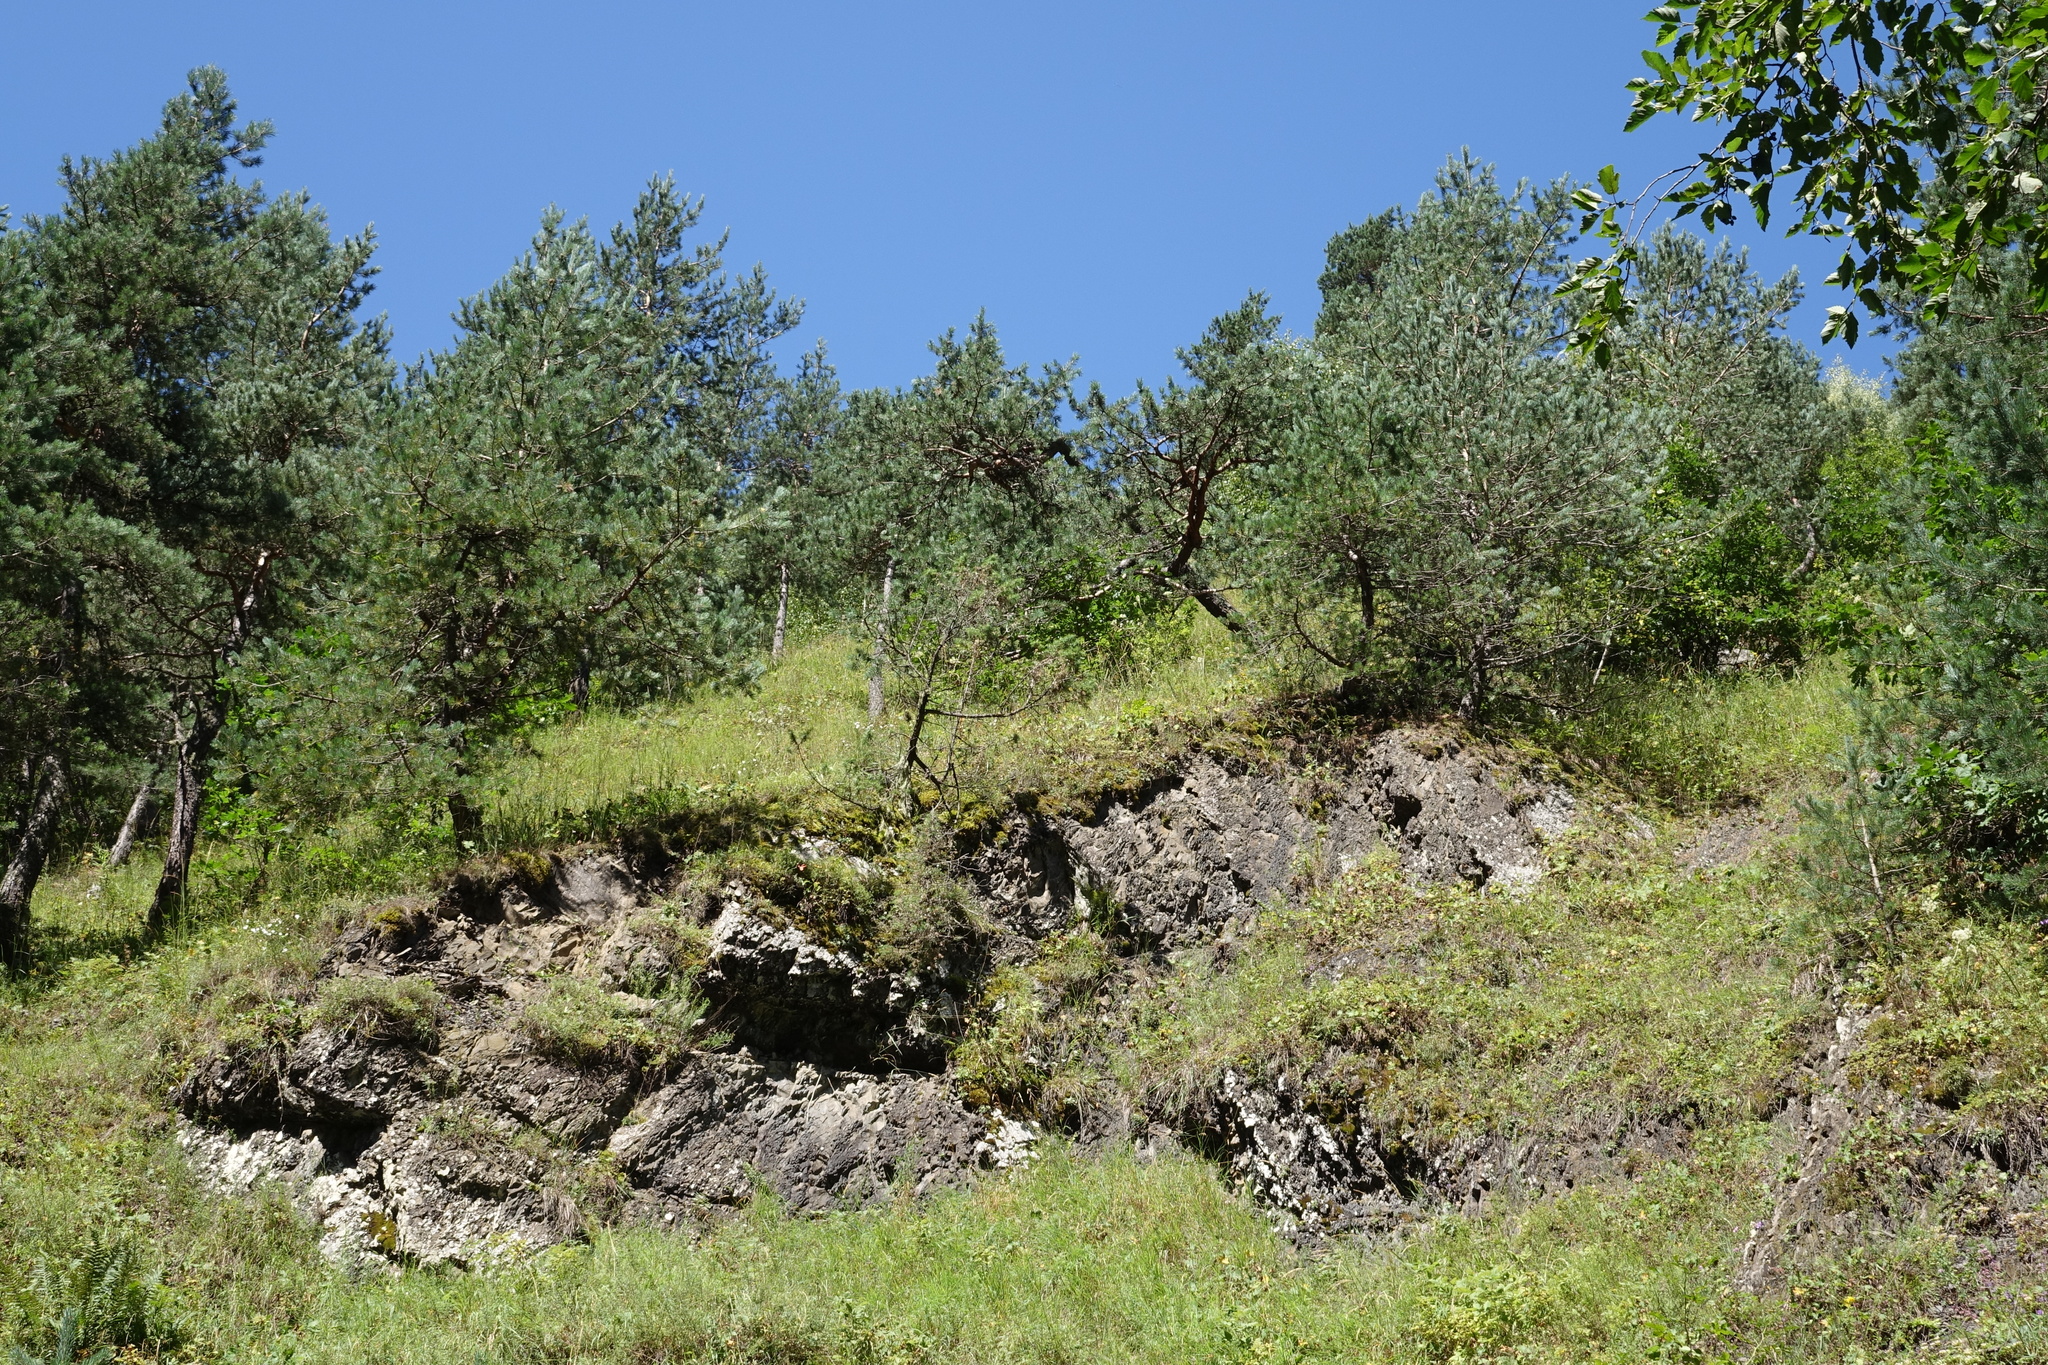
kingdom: Plantae
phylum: Tracheophyta
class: Pinopsida
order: Pinales
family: Pinaceae
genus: Pinus
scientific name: Pinus sylvestris
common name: Scots pine
